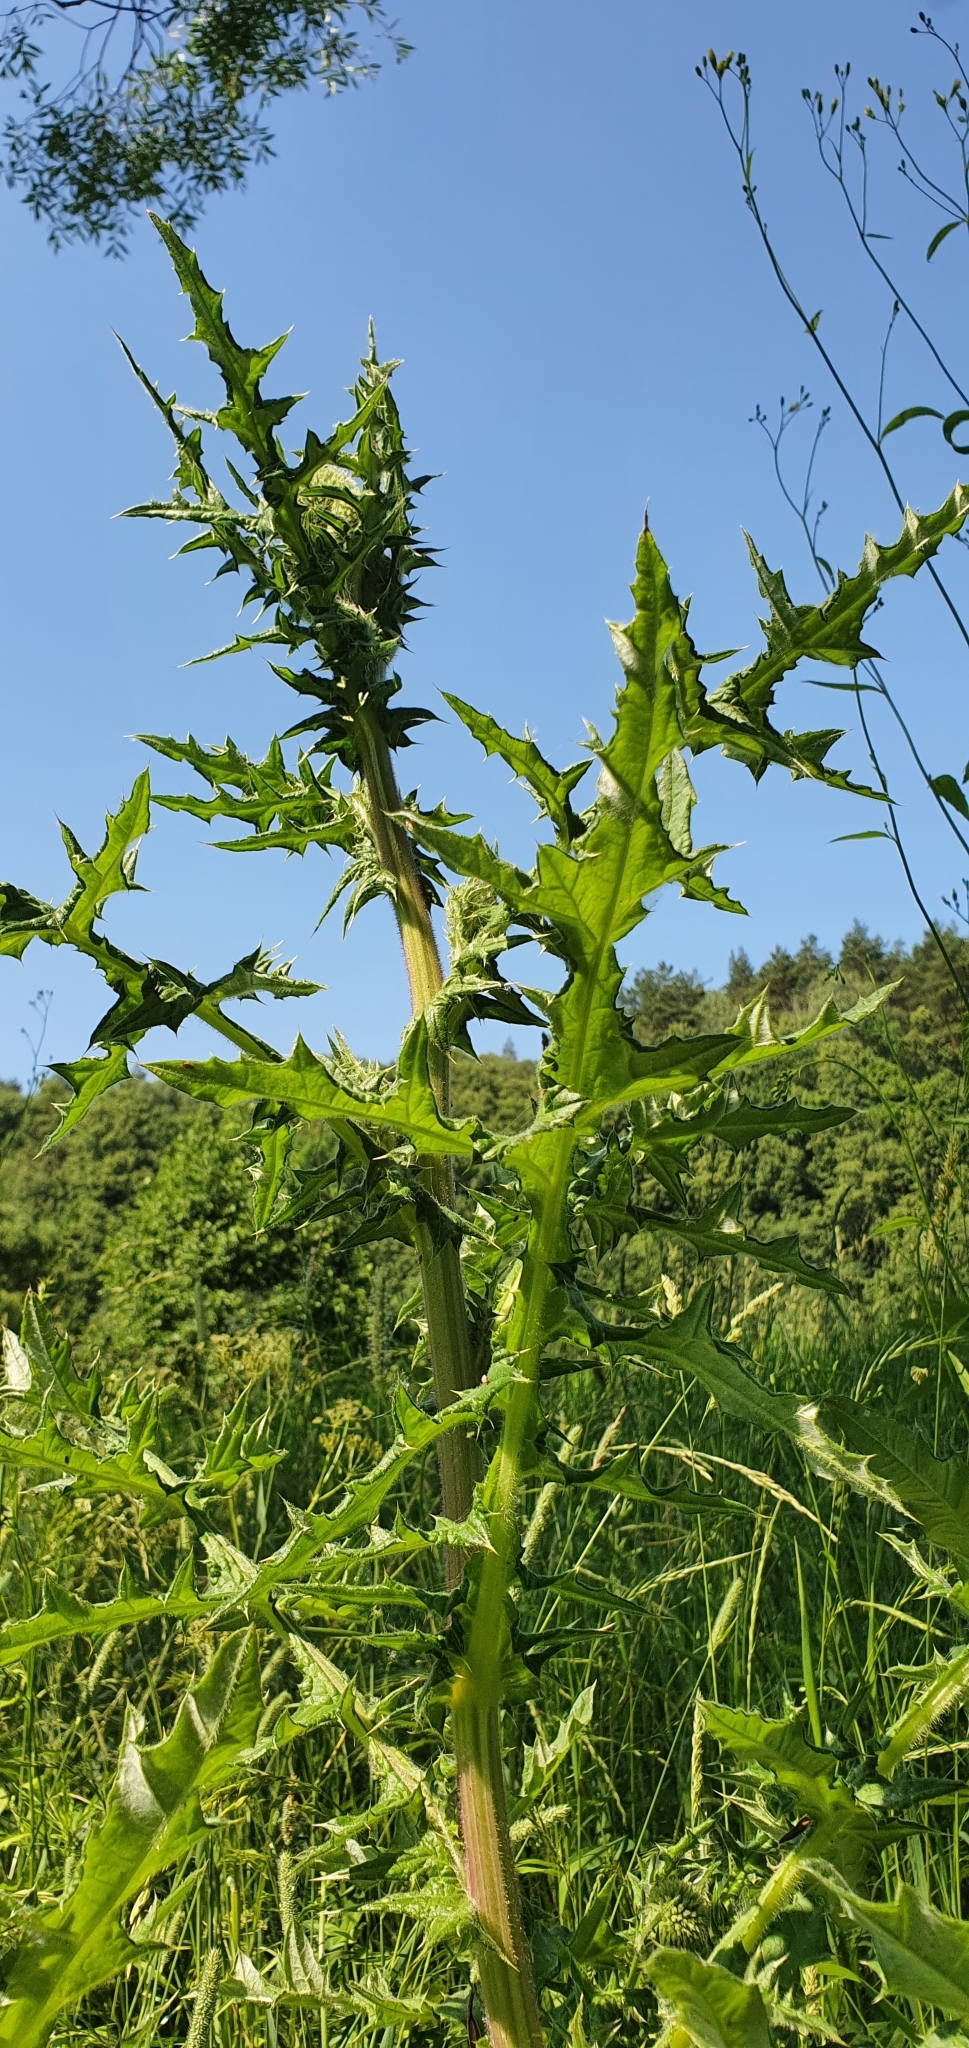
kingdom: Plantae
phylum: Tracheophyta
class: Magnoliopsida
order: Asterales
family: Asteraceae
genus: Echinops
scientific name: Echinops sphaerocephalus
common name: Glandular globe-thistle
